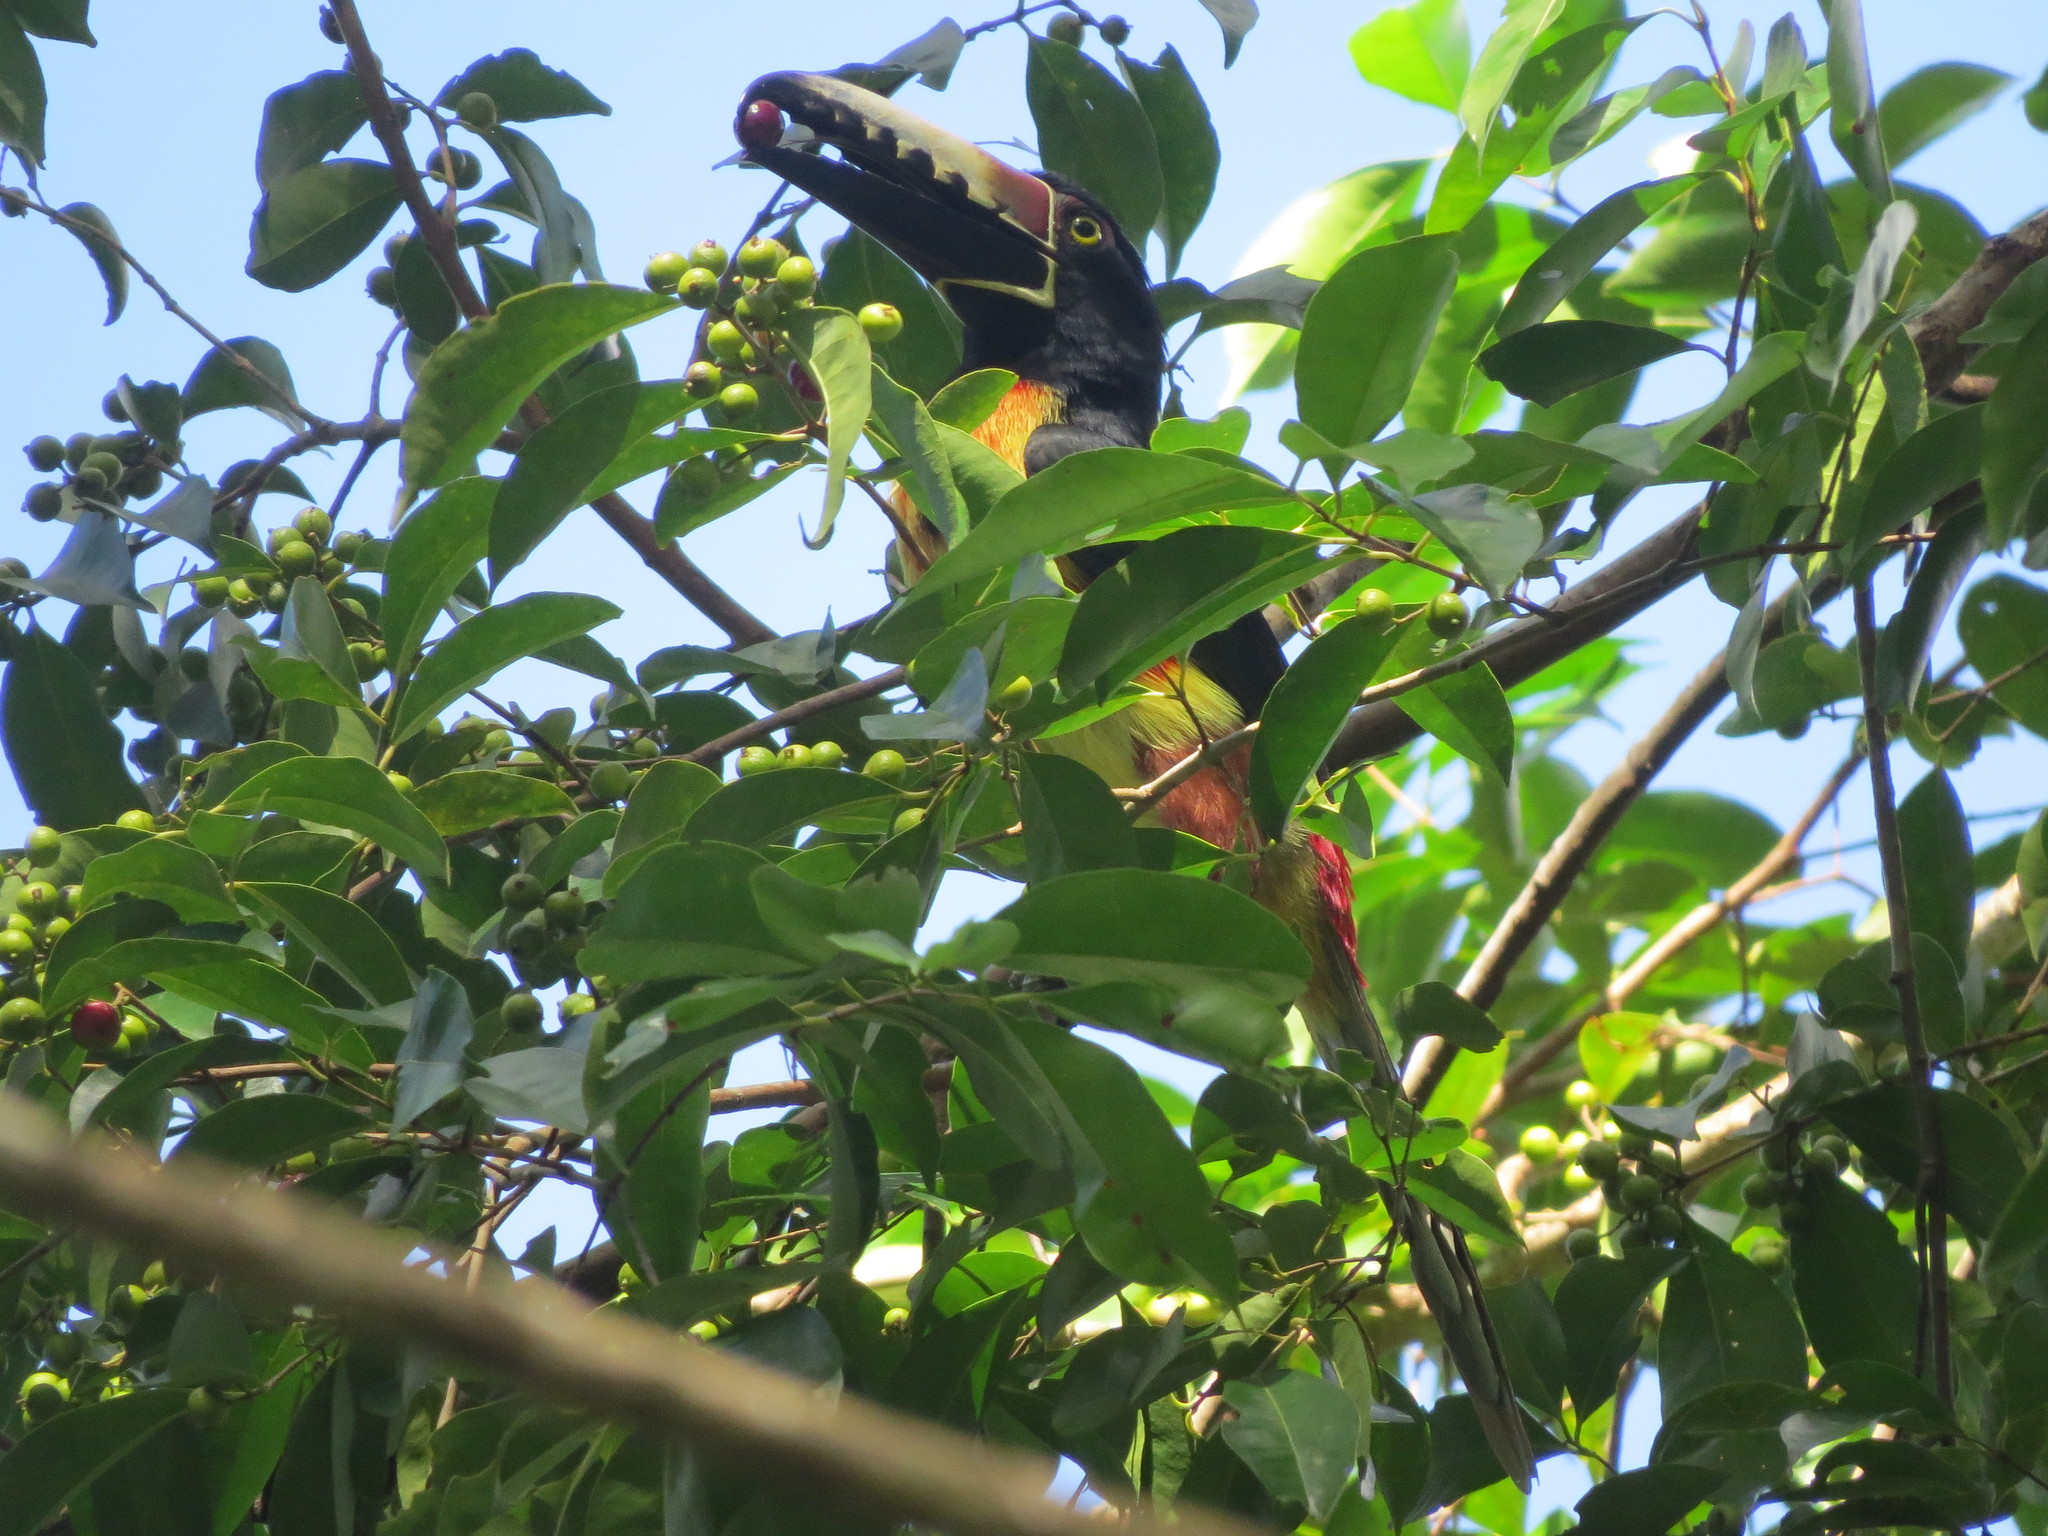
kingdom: Animalia
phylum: Chordata
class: Aves
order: Piciformes
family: Ramphastidae
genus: Pteroglossus
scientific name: Pteroglossus torquatus
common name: Collared aracari
